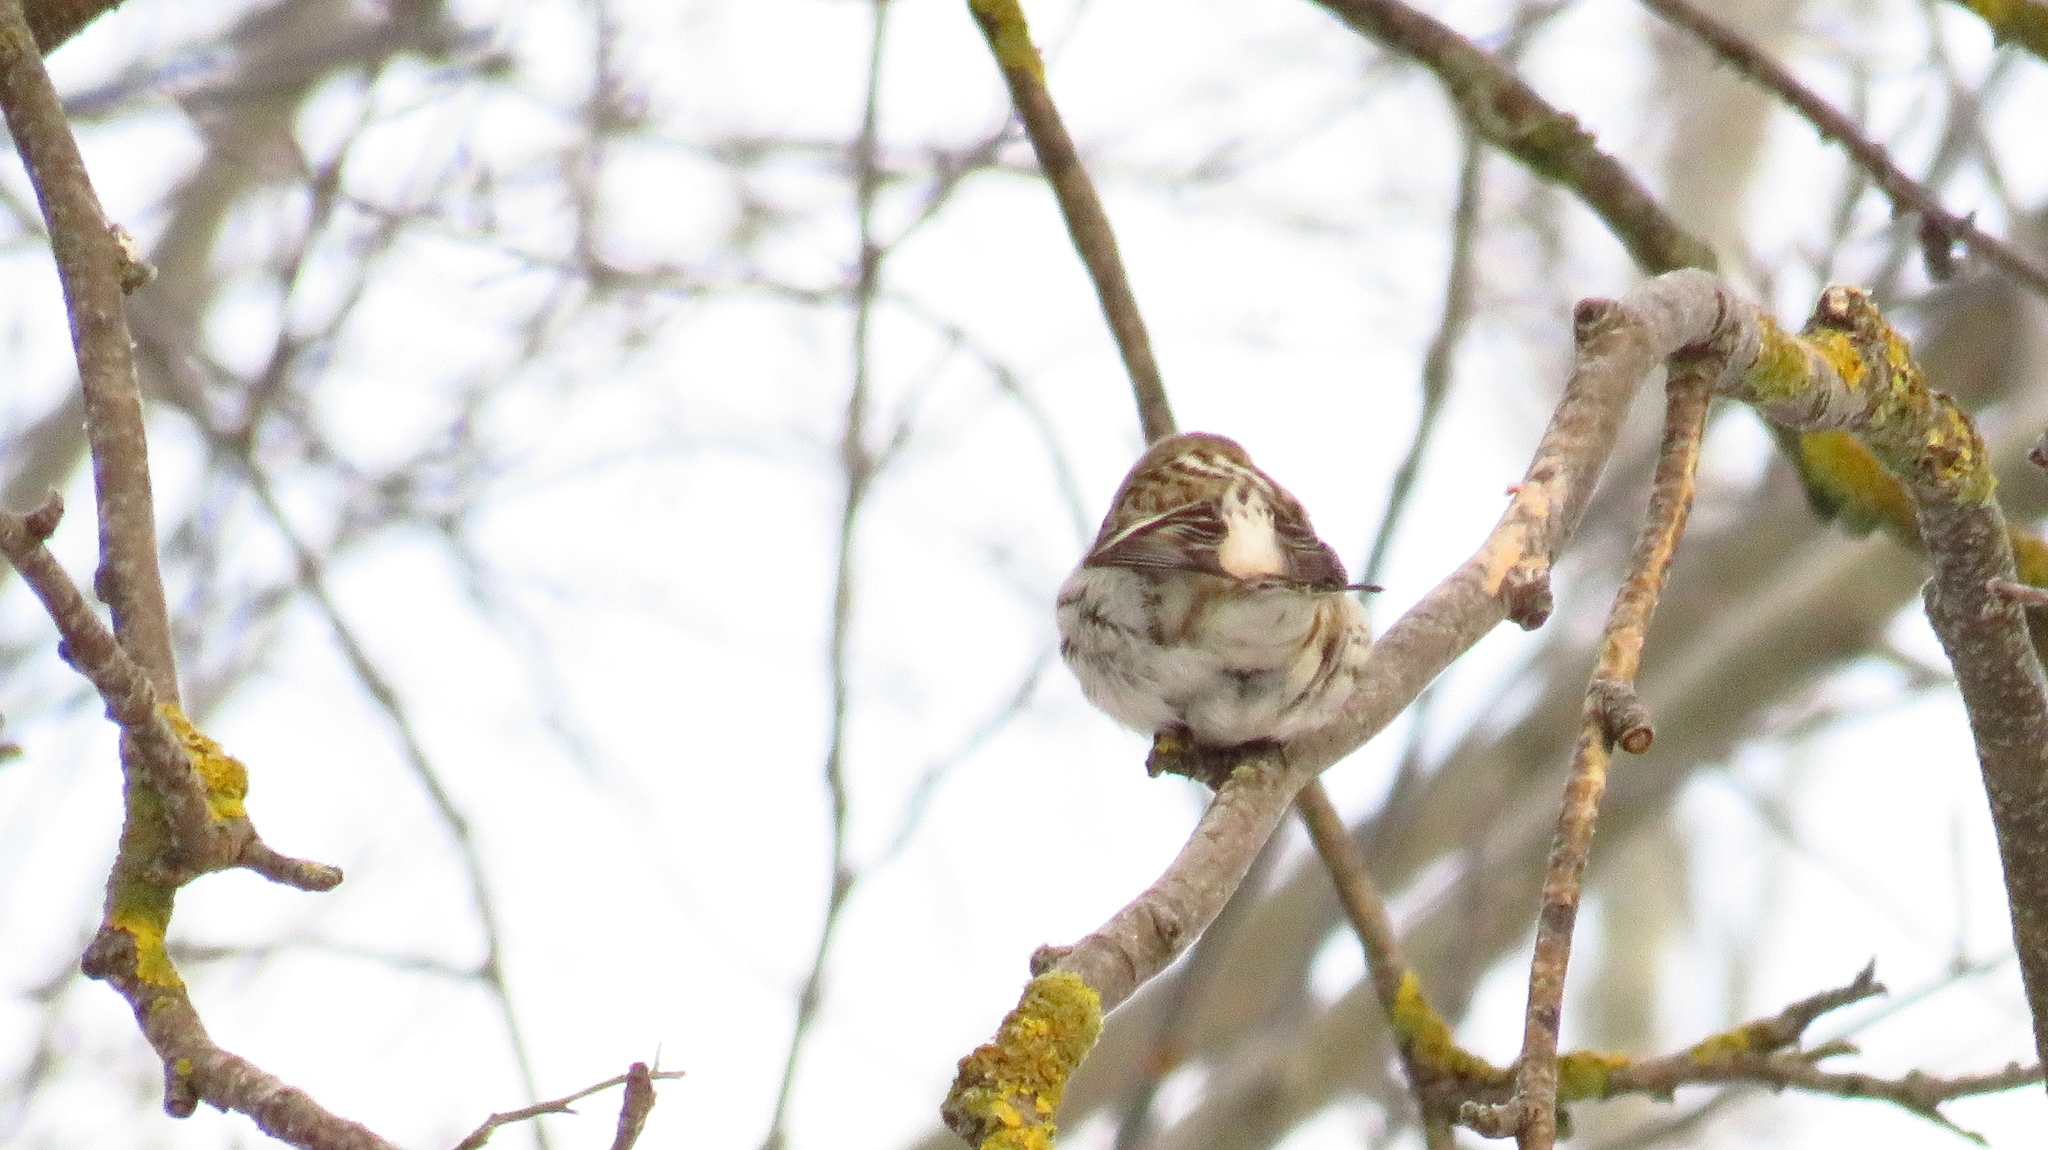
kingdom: Animalia
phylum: Chordata
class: Aves
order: Passeriformes
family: Fringillidae
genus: Acanthis
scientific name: Acanthis flammea
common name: Common redpoll
